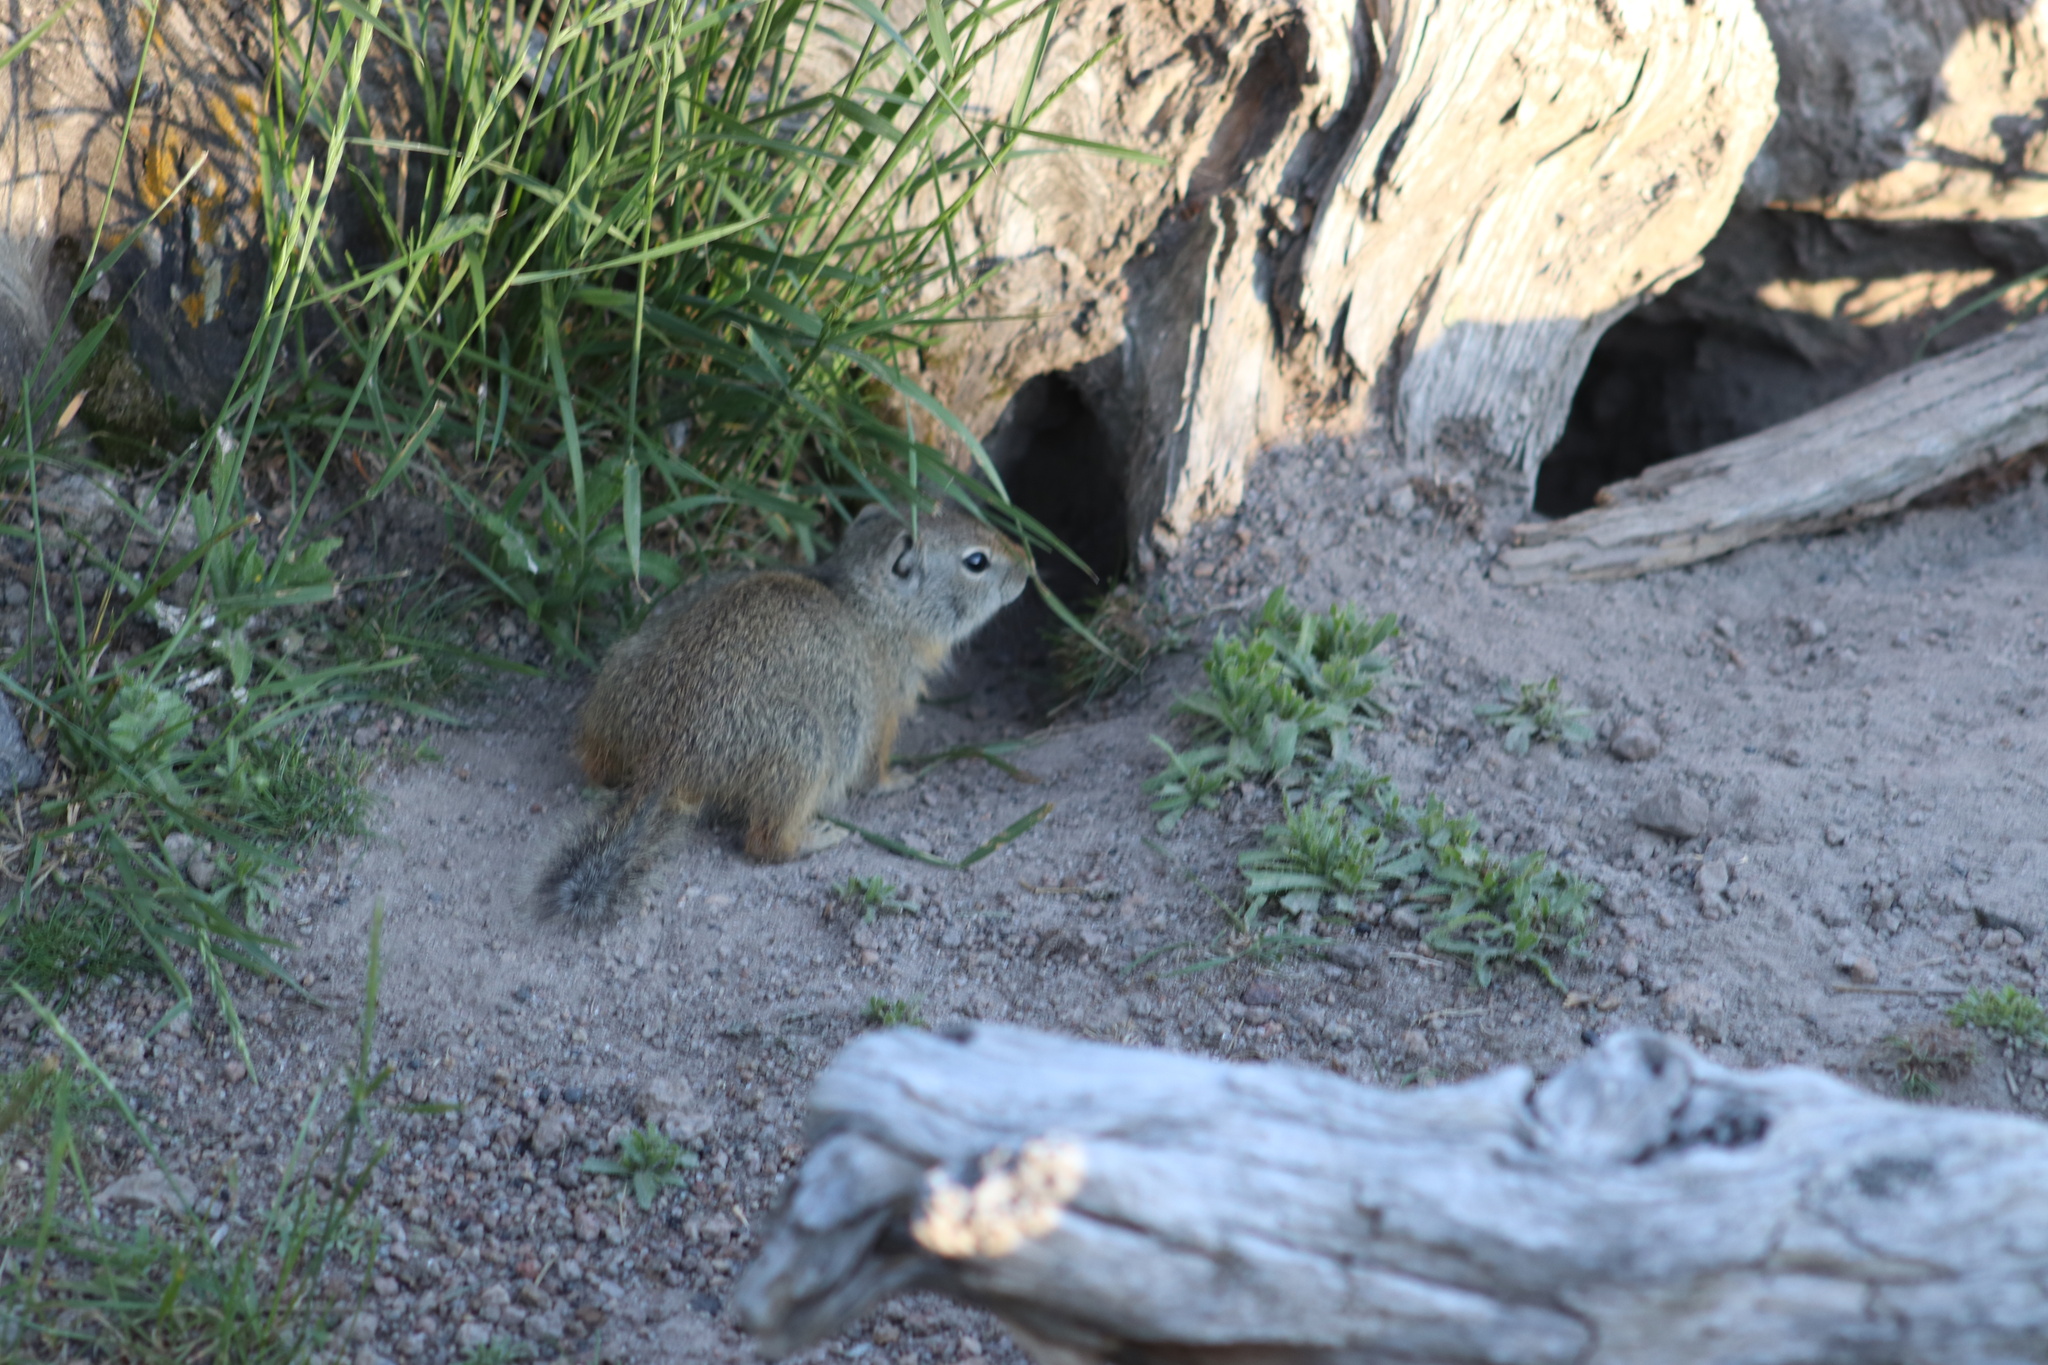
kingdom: Animalia
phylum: Chordata
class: Mammalia
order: Rodentia
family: Sciuridae
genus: Urocitellus
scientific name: Urocitellus armatus
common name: Uinta ground squirrel
